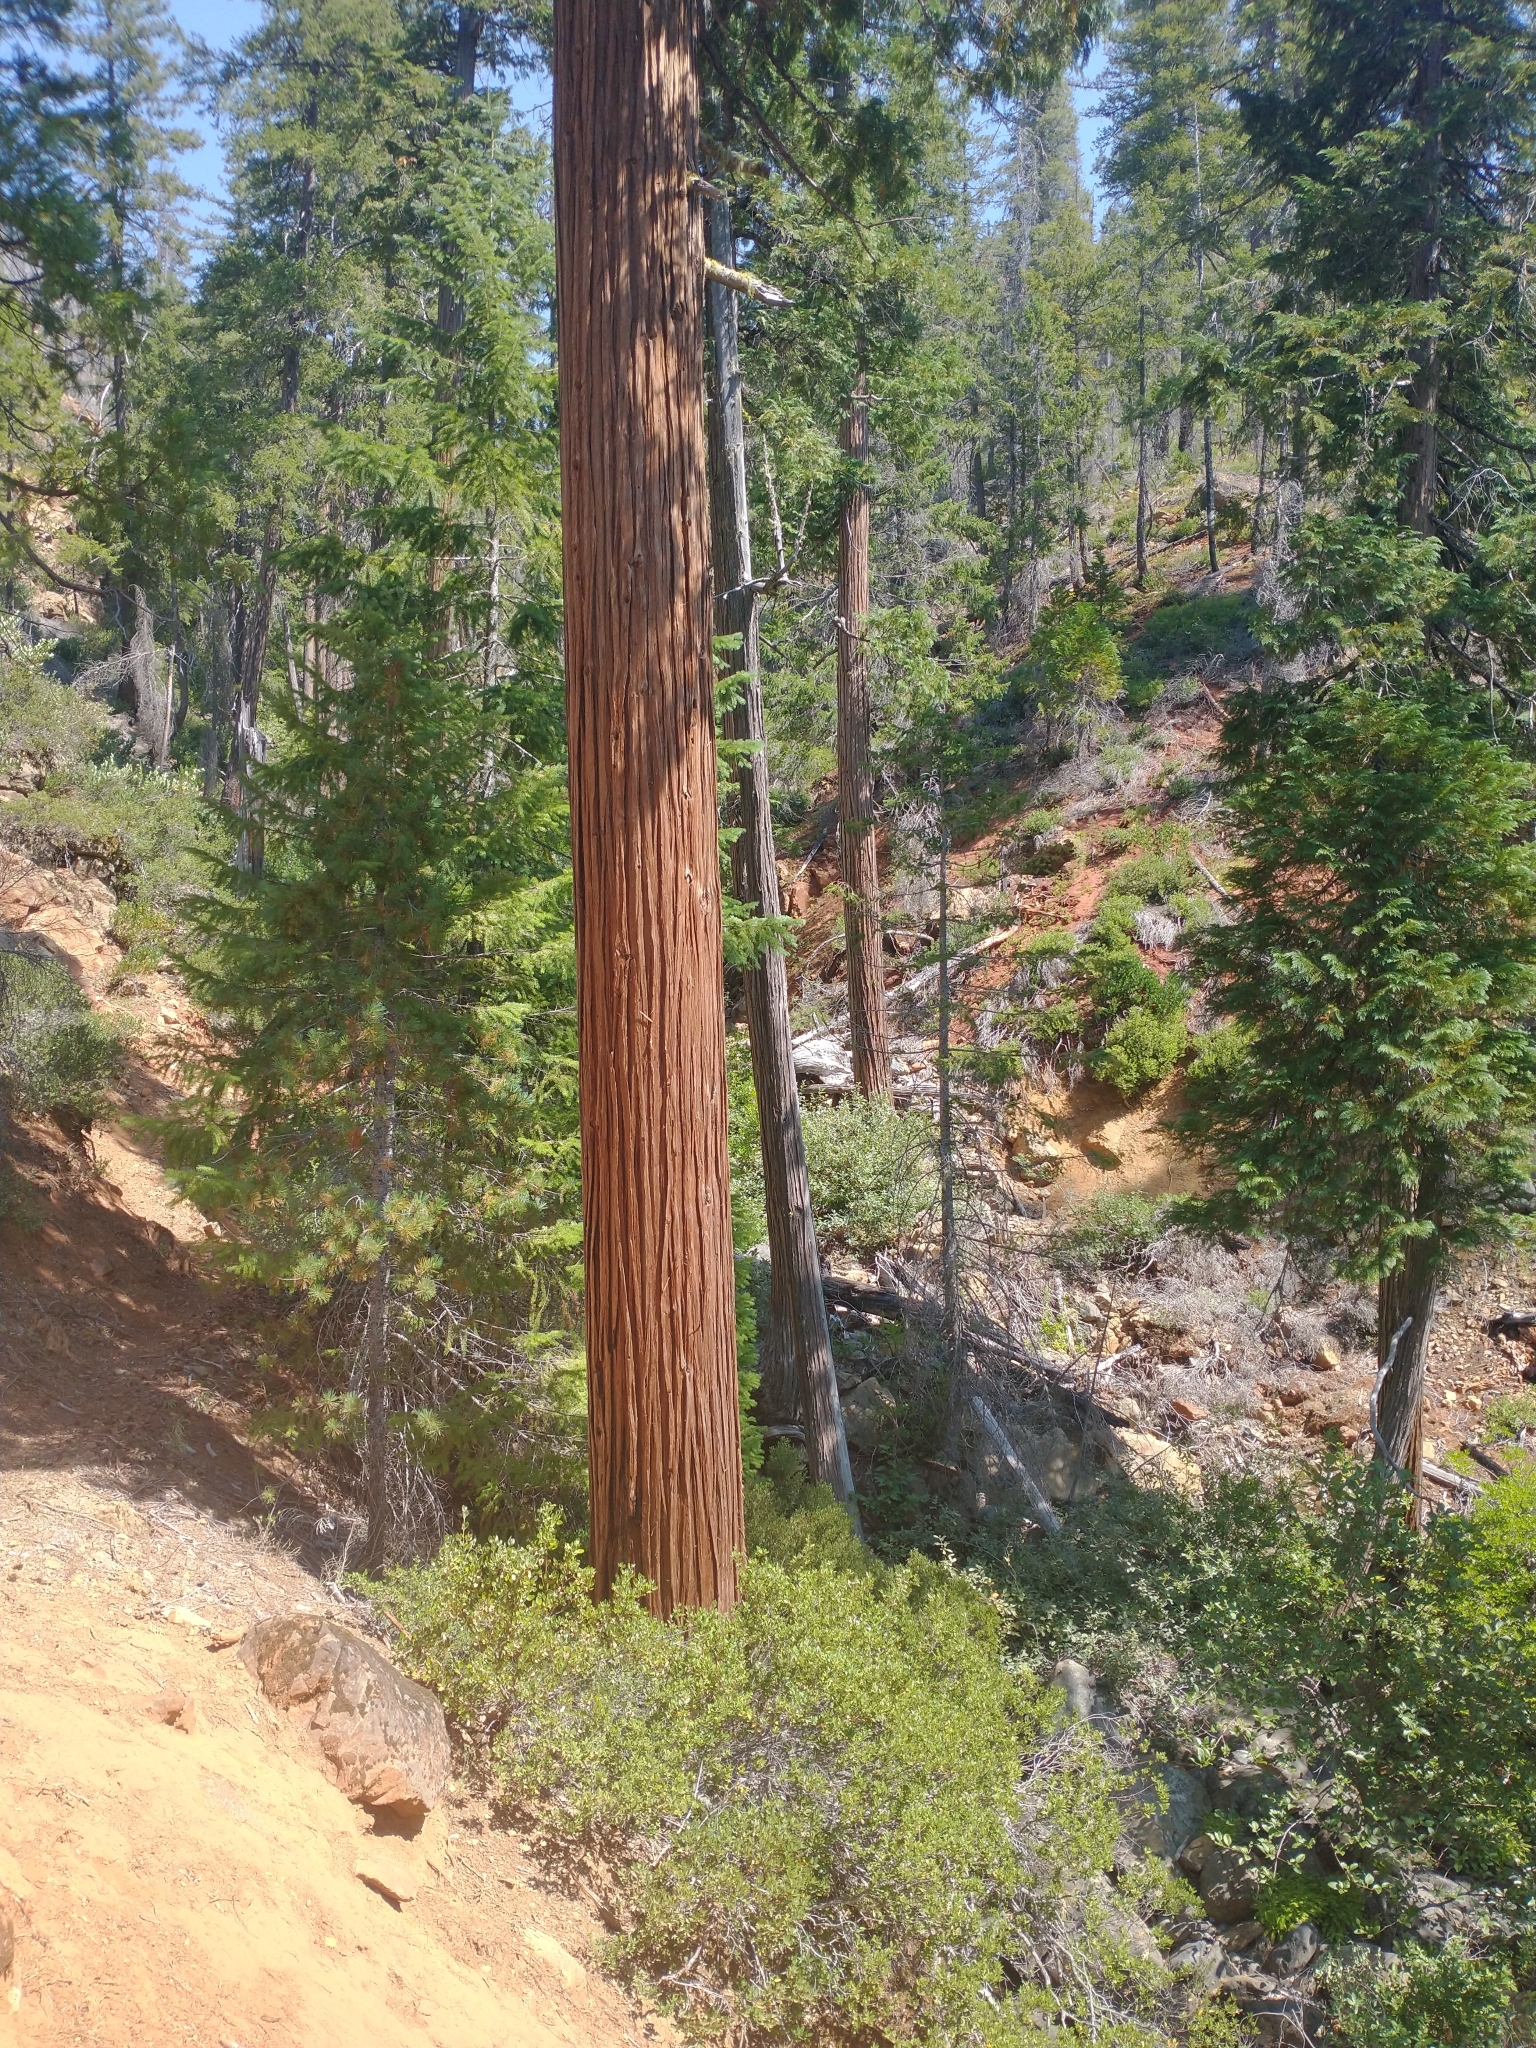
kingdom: Plantae
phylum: Tracheophyta
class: Pinopsida
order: Pinales
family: Cupressaceae
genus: Chamaecyparis
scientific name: Chamaecyparis lawsoniana
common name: Lawson's cypress
